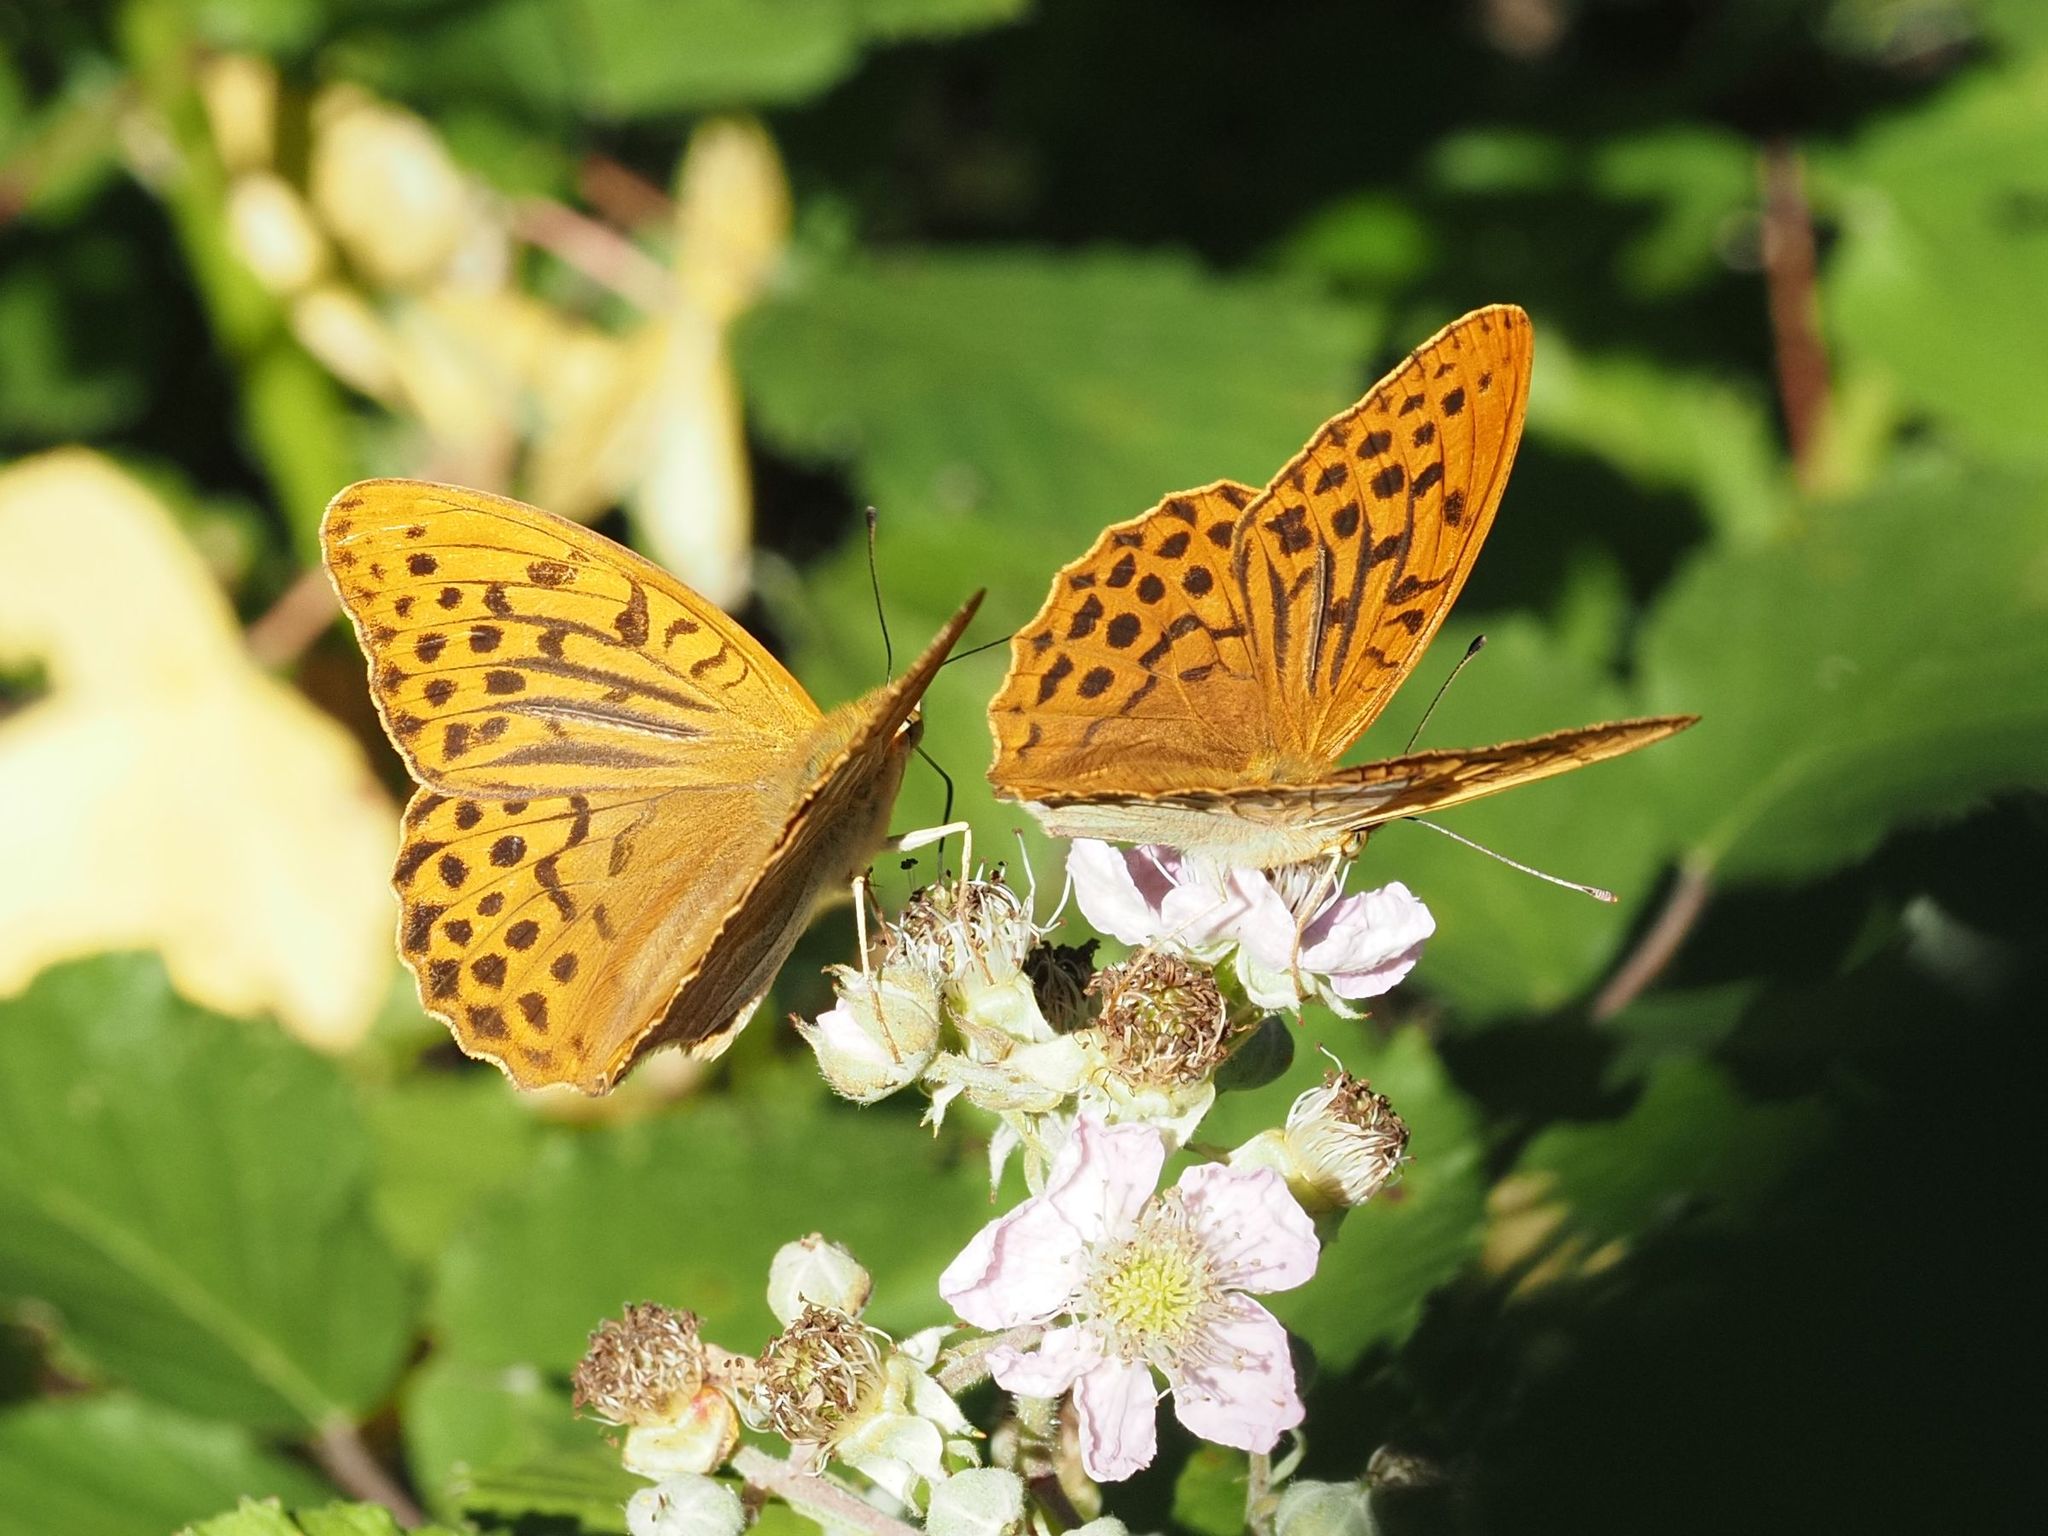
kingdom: Animalia
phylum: Arthropoda
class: Insecta
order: Lepidoptera
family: Nymphalidae
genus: Argynnis
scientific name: Argynnis paphia
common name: Silver-washed fritillary
